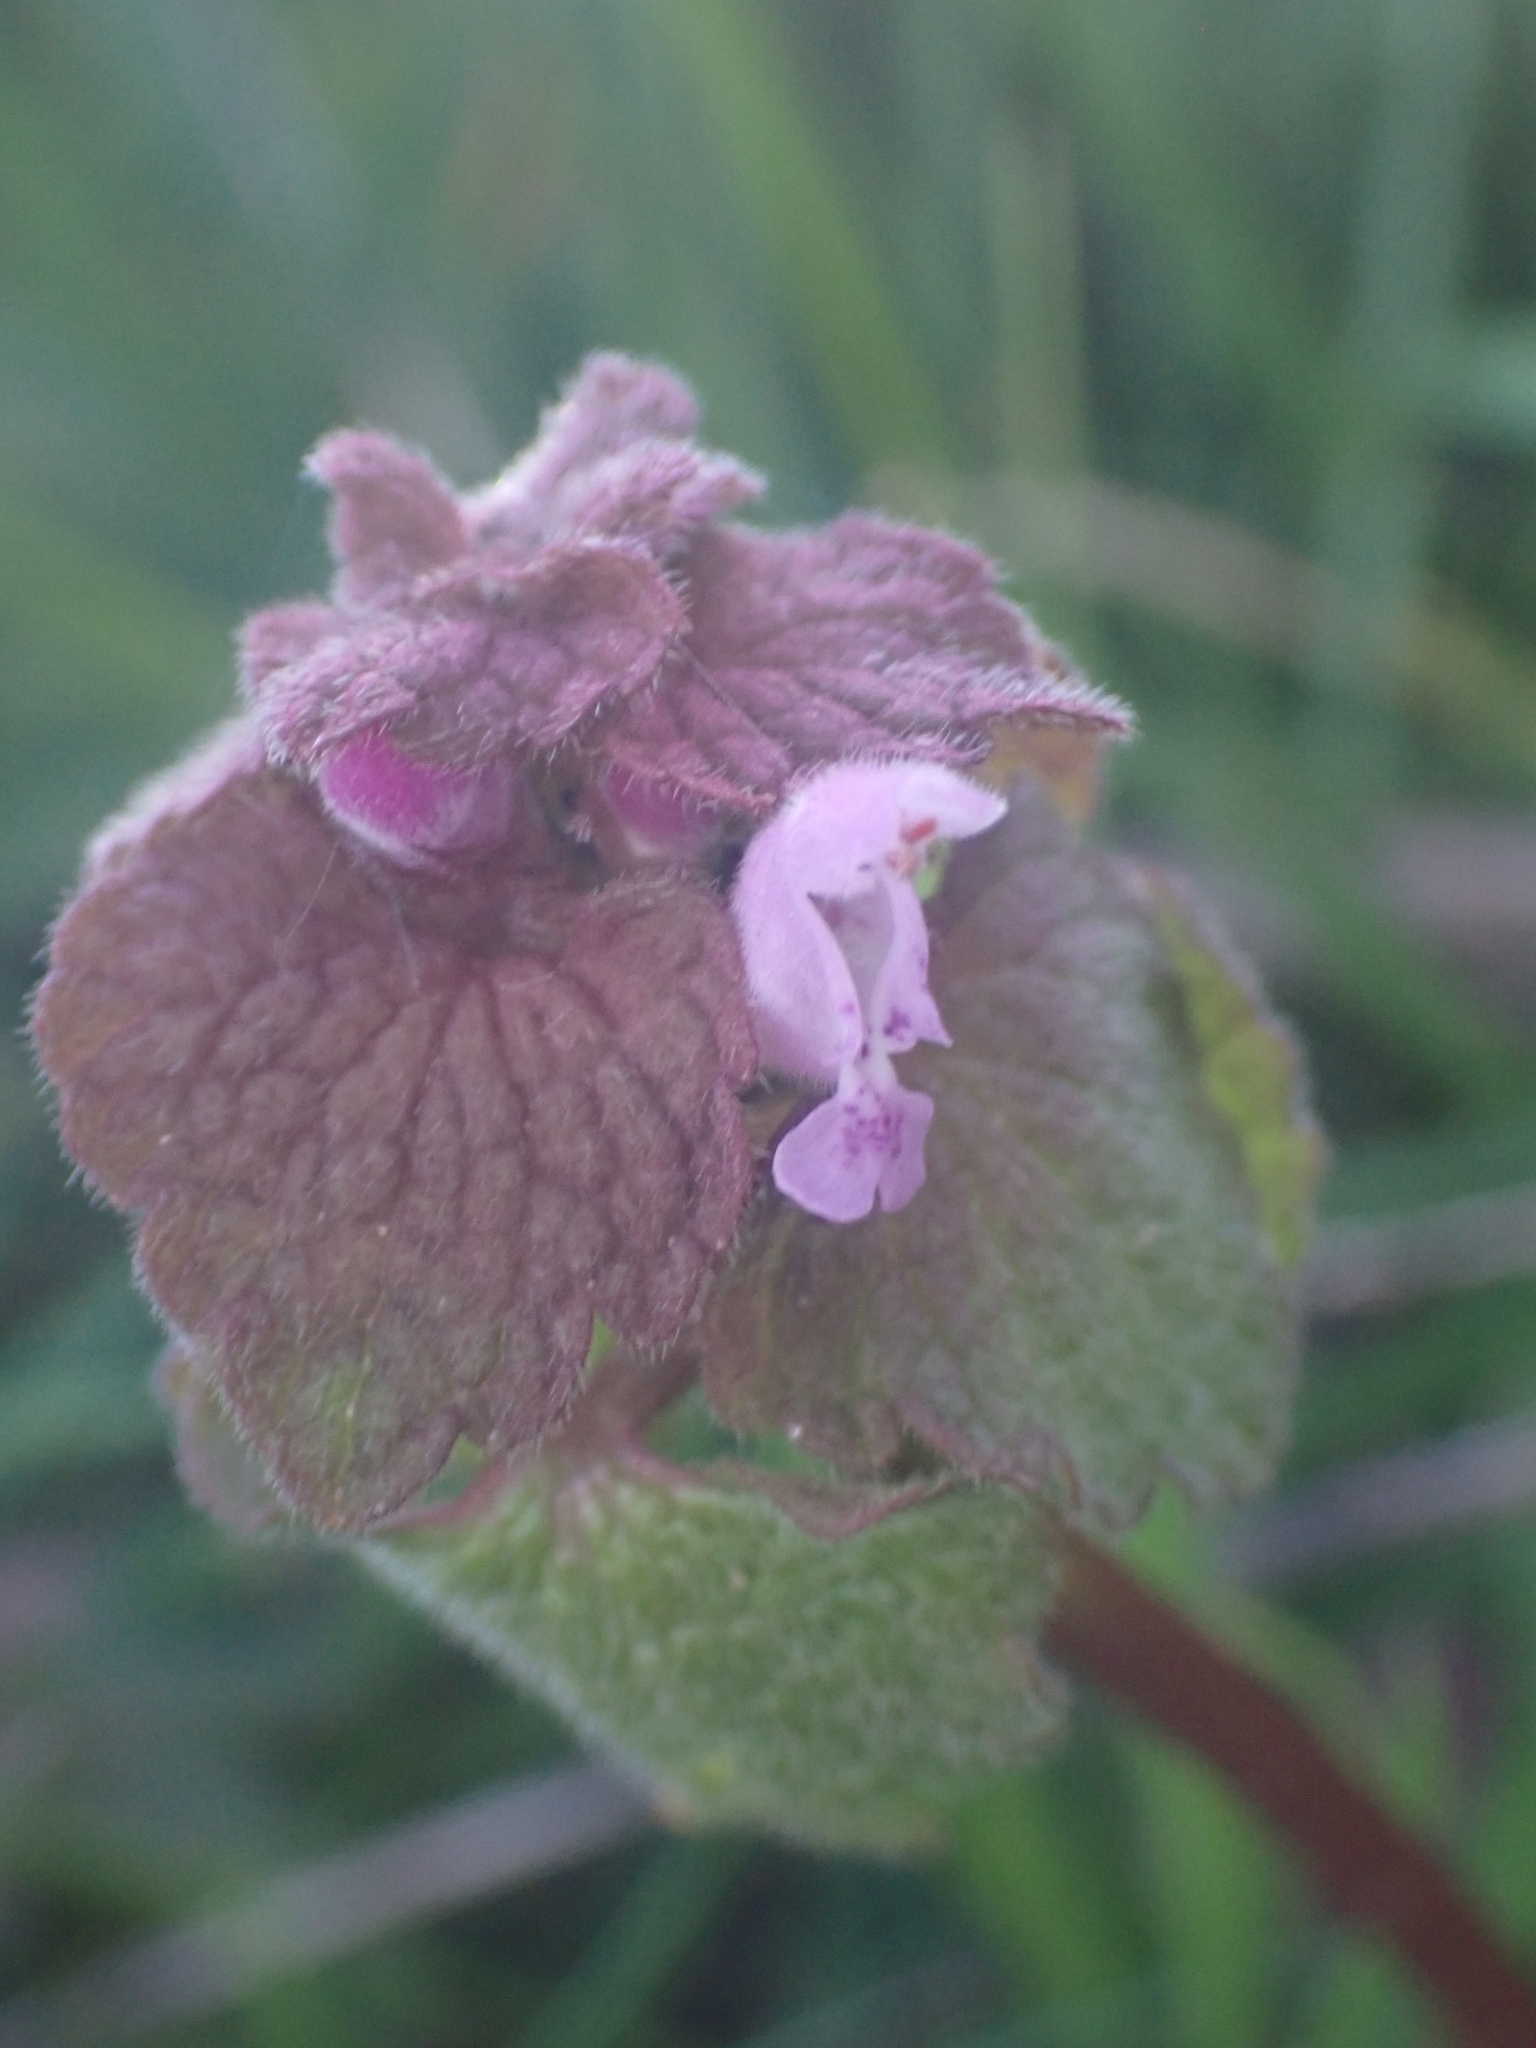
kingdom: Plantae
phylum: Tracheophyta
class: Magnoliopsida
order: Lamiales
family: Lamiaceae
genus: Lamium
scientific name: Lamium purpureum
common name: Red dead-nettle
